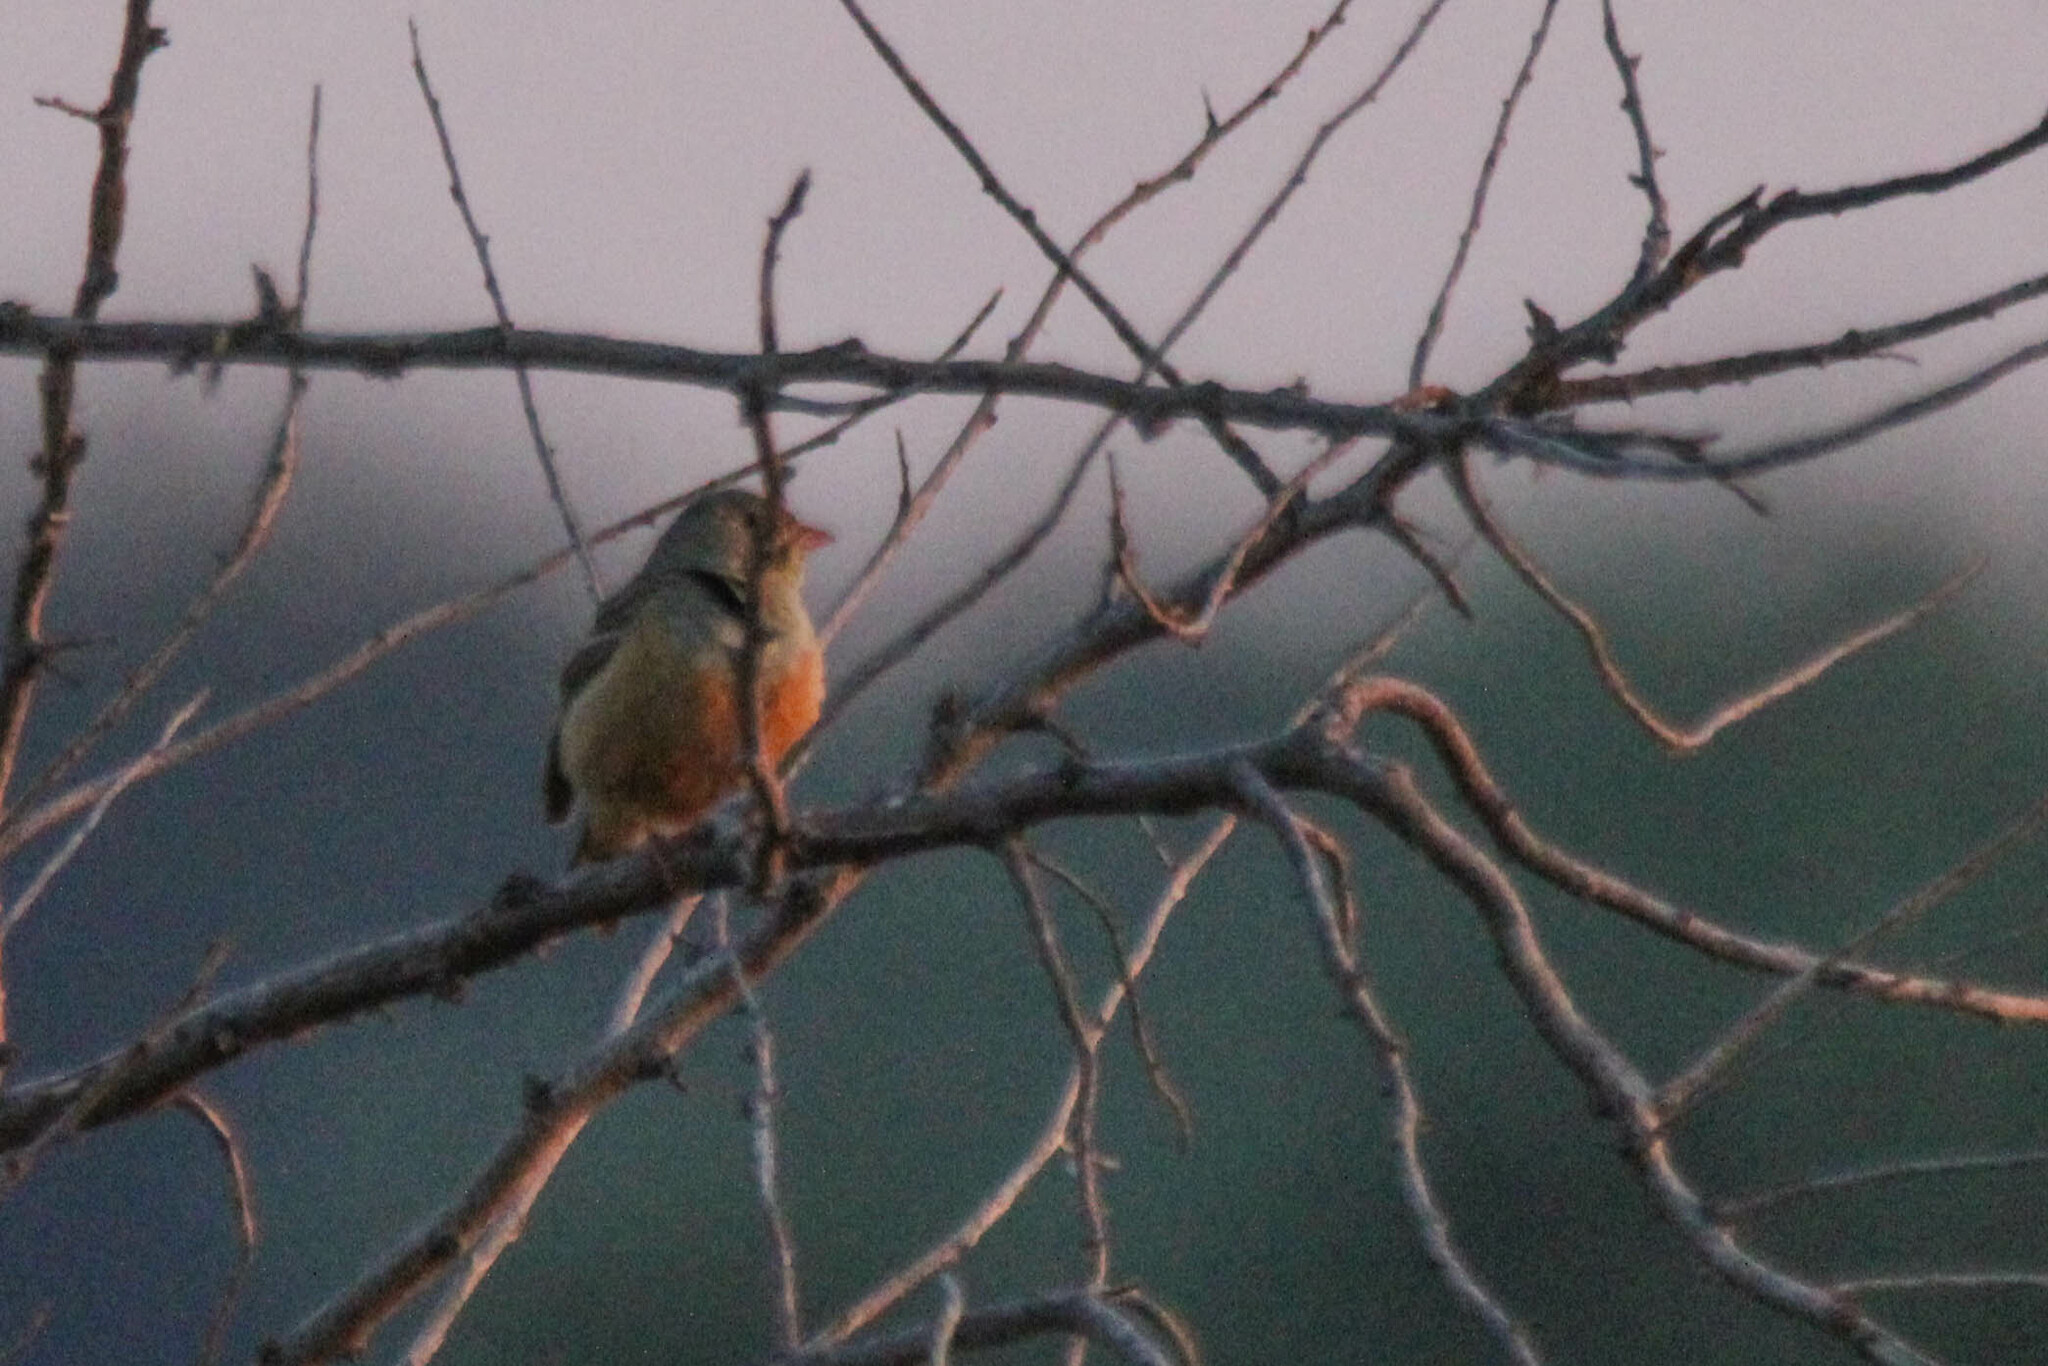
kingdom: Animalia
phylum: Chordata
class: Aves
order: Passeriformes
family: Emberizidae
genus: Emberiza
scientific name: Emberiza hortulana
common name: Ortolan bunting
